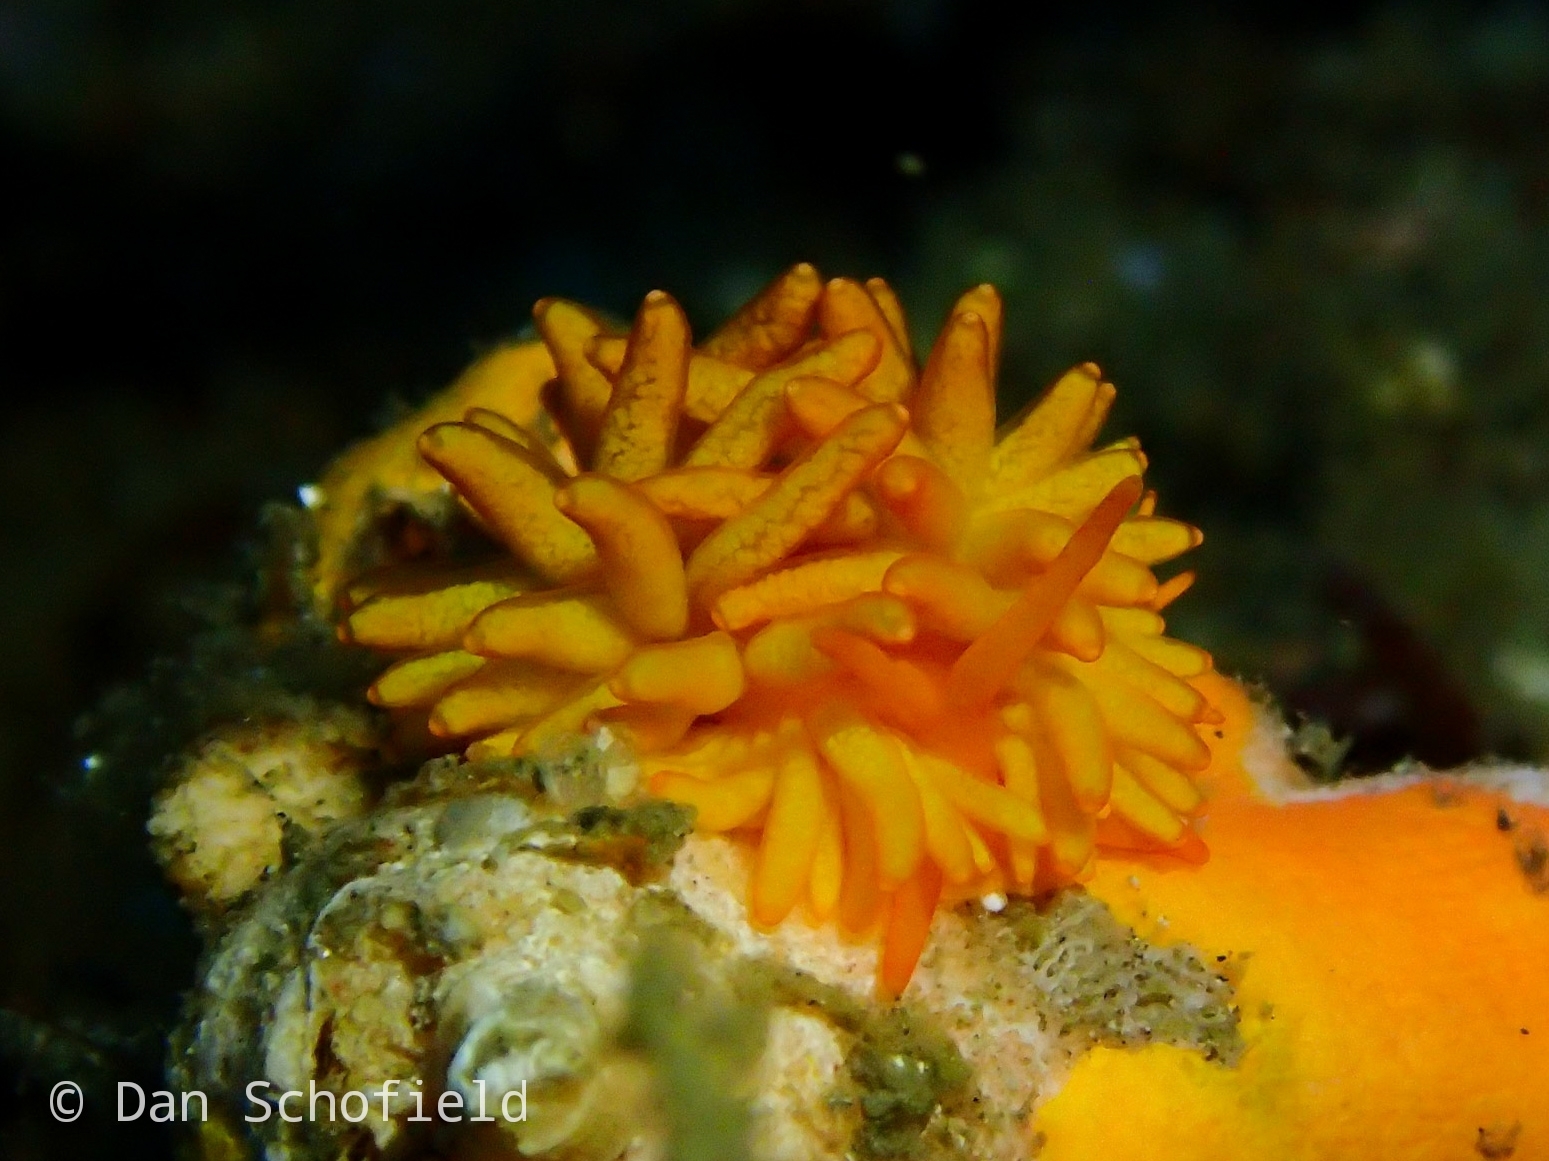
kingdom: Animalia
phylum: Mollusca
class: Gastropoda
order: Nudibranchia
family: Trinchesiidae
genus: Phestilla
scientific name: Phestilla melanobrachia
